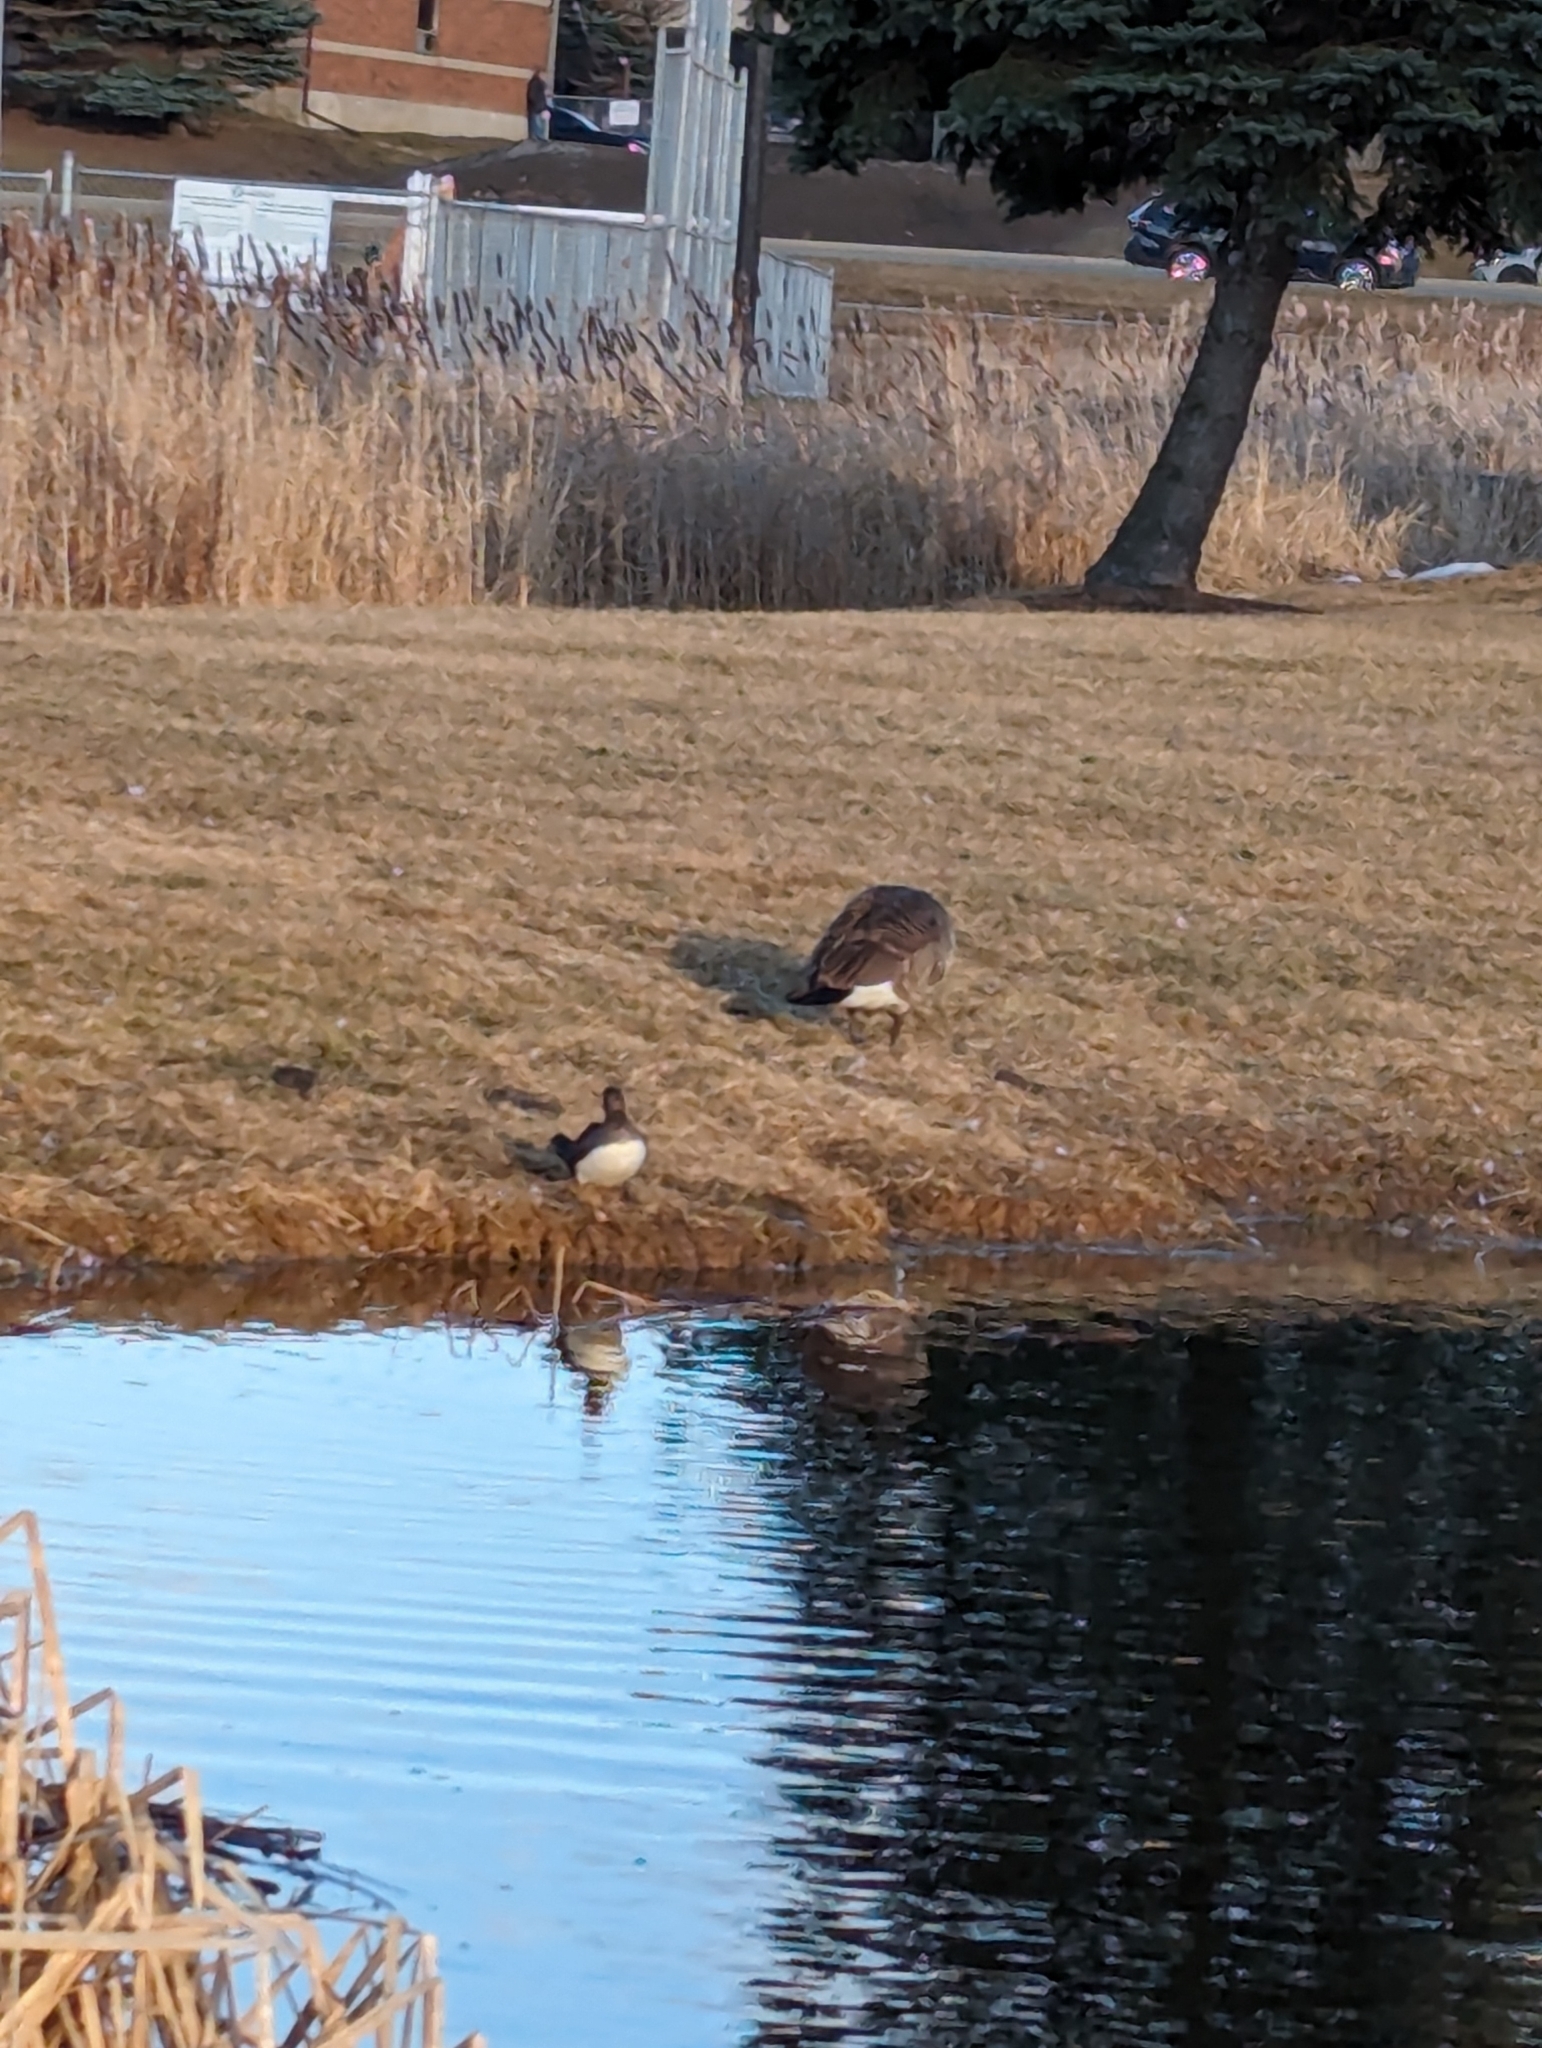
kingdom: Animalia
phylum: Chordata
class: Aves
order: Anseriformes
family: Anatidae
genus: Lophodytes
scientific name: Lophodytes cucullatus
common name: Hooded merganser
